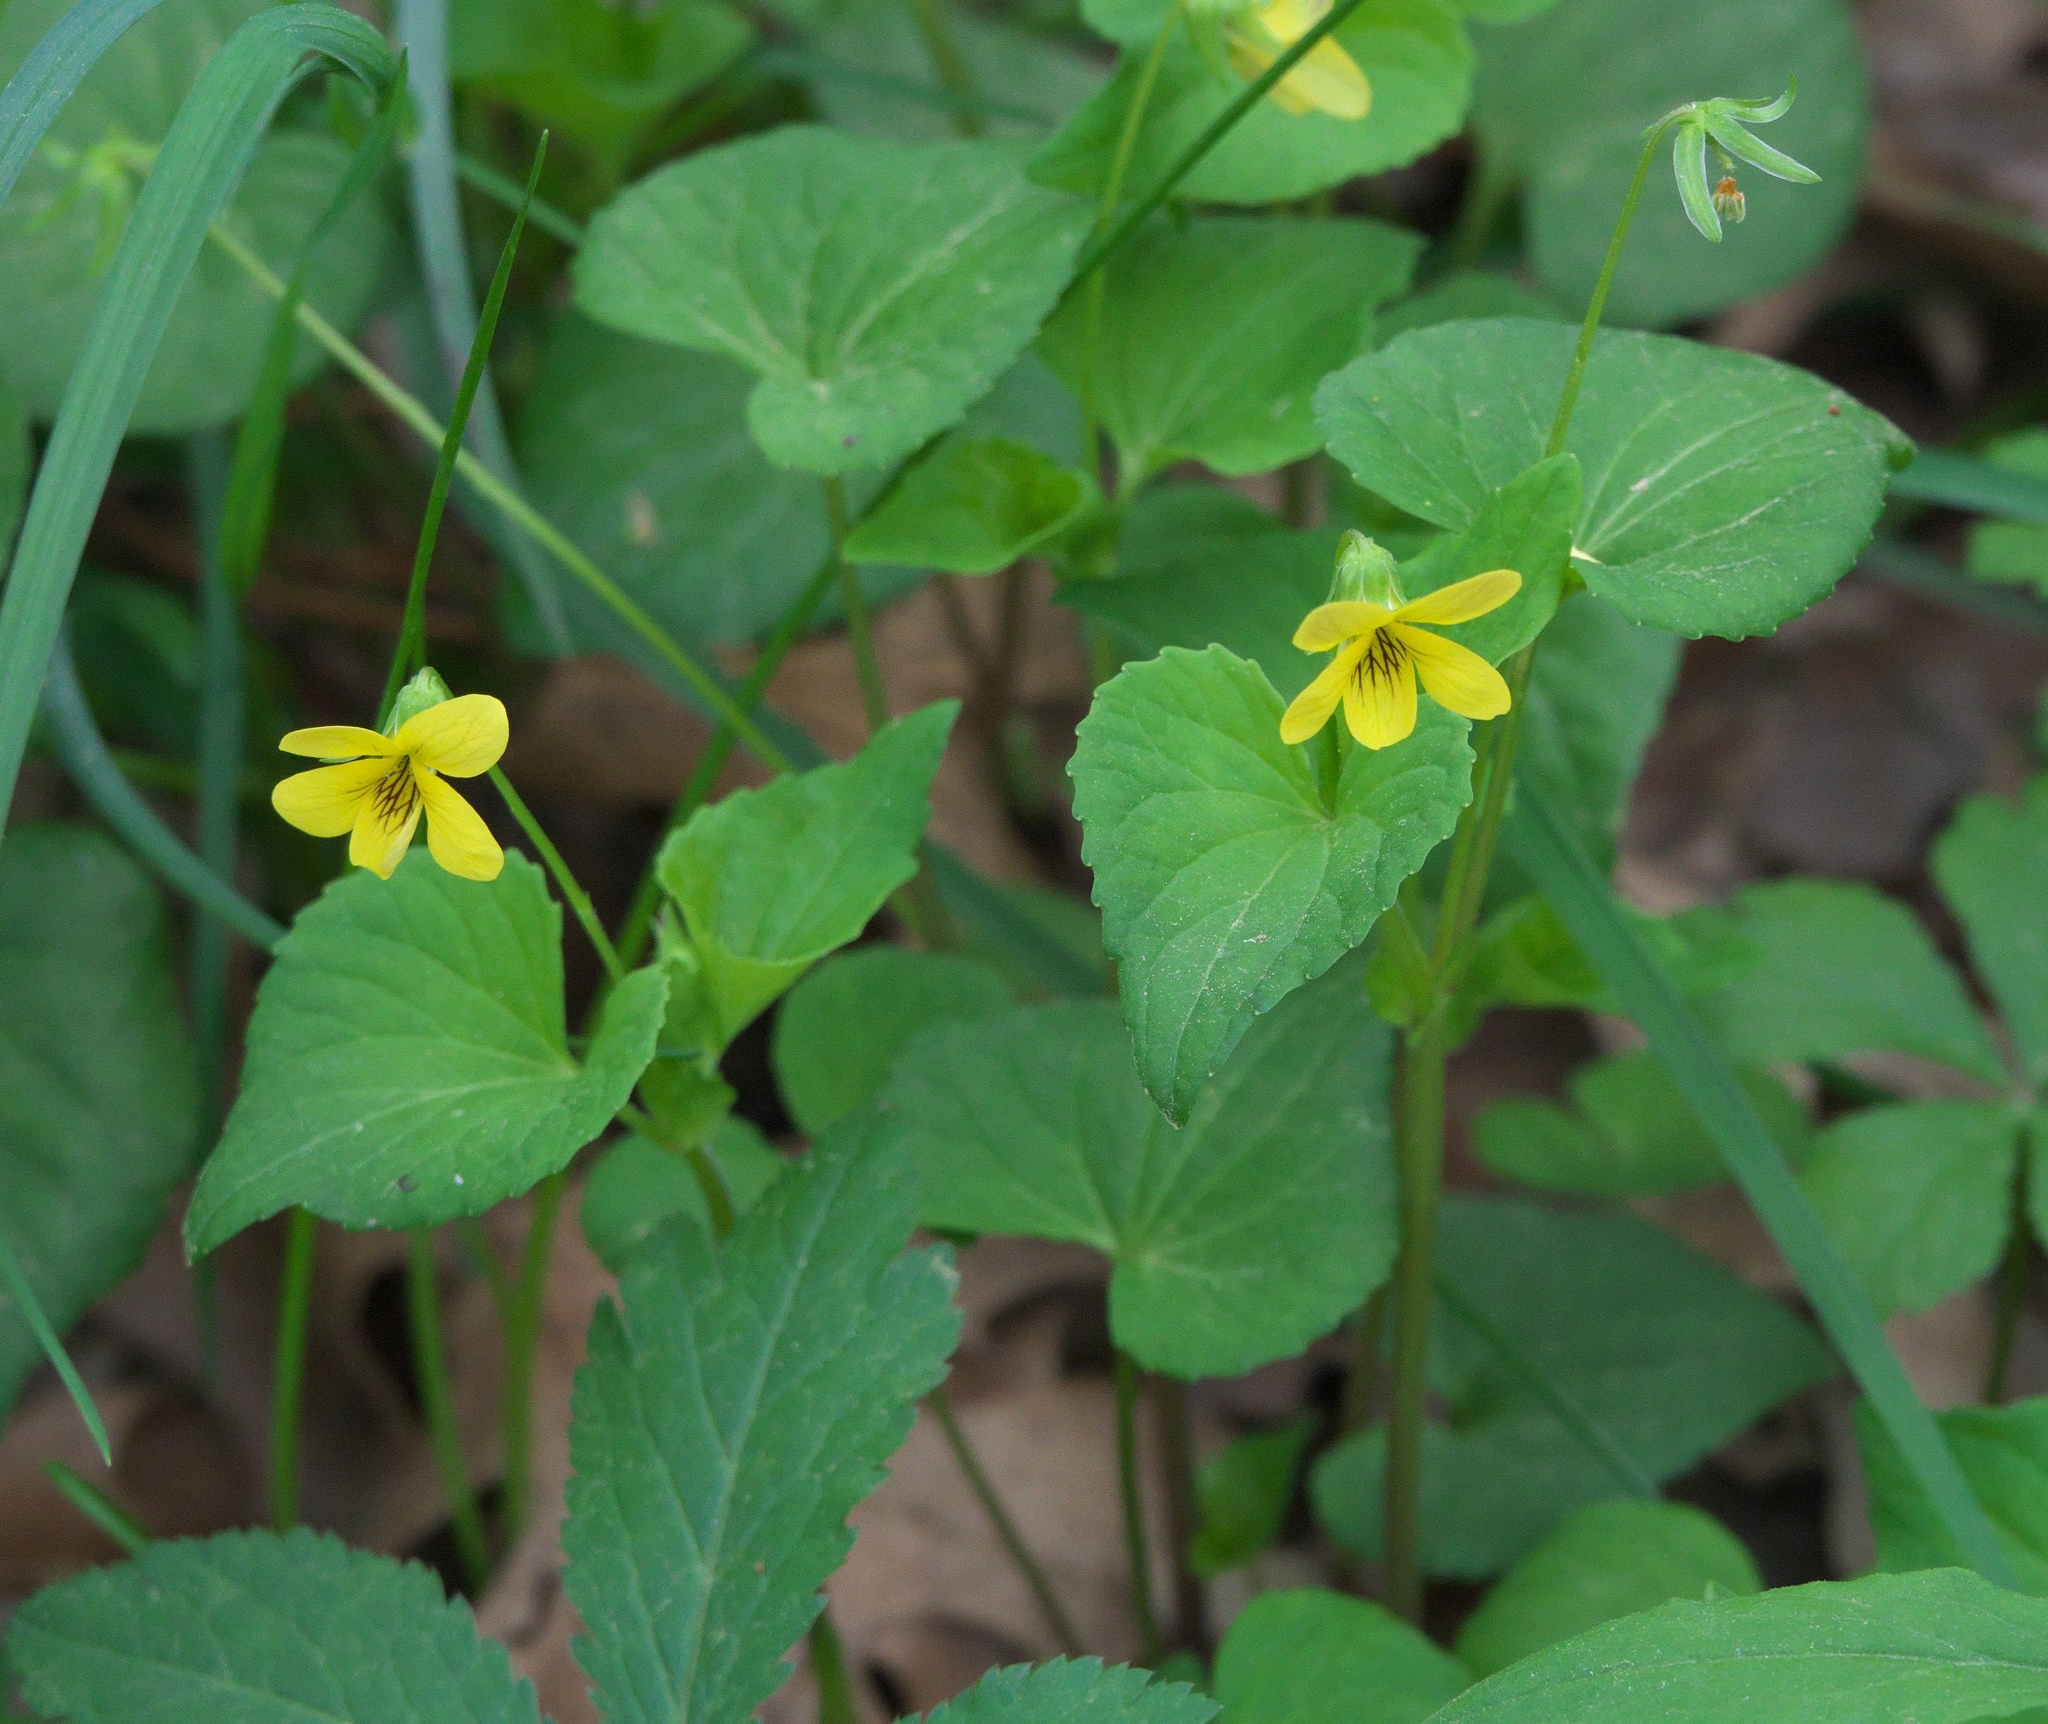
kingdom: Plantae
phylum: Tracheophyta
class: Magnoliopsida
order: Malpighiales
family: Violaceae
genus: Viola
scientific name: Viola eriocarpa
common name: Smooth yellow violet
